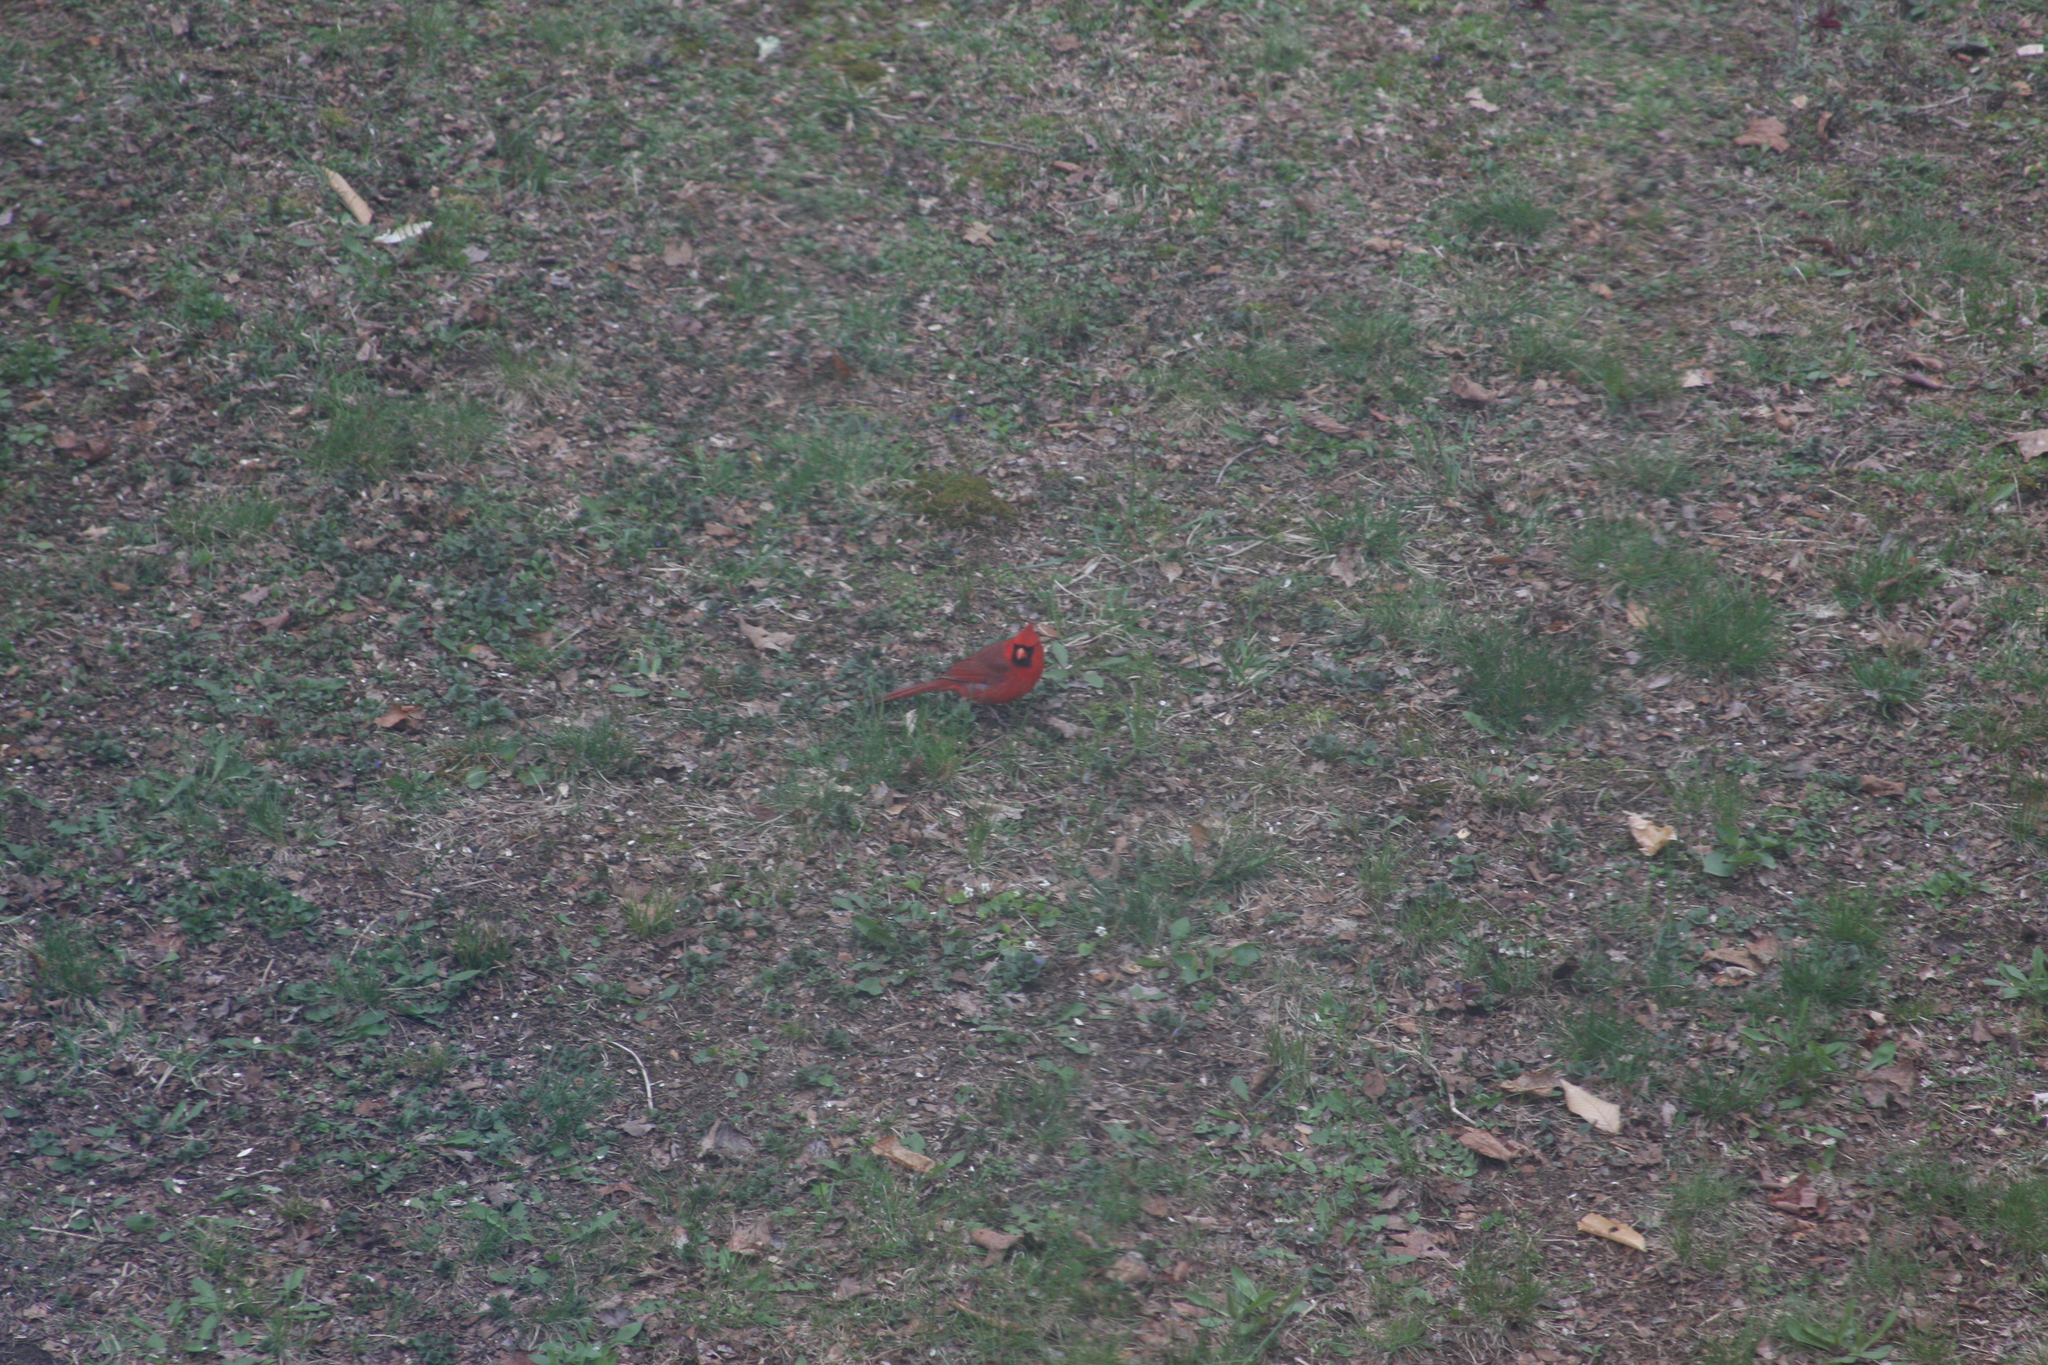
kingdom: Animalia
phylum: Chordata
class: Aves
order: Passeriformes
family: Cardinalidae
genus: Cardinalis
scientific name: Cardinalis cardinalis
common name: Northern cardinal
